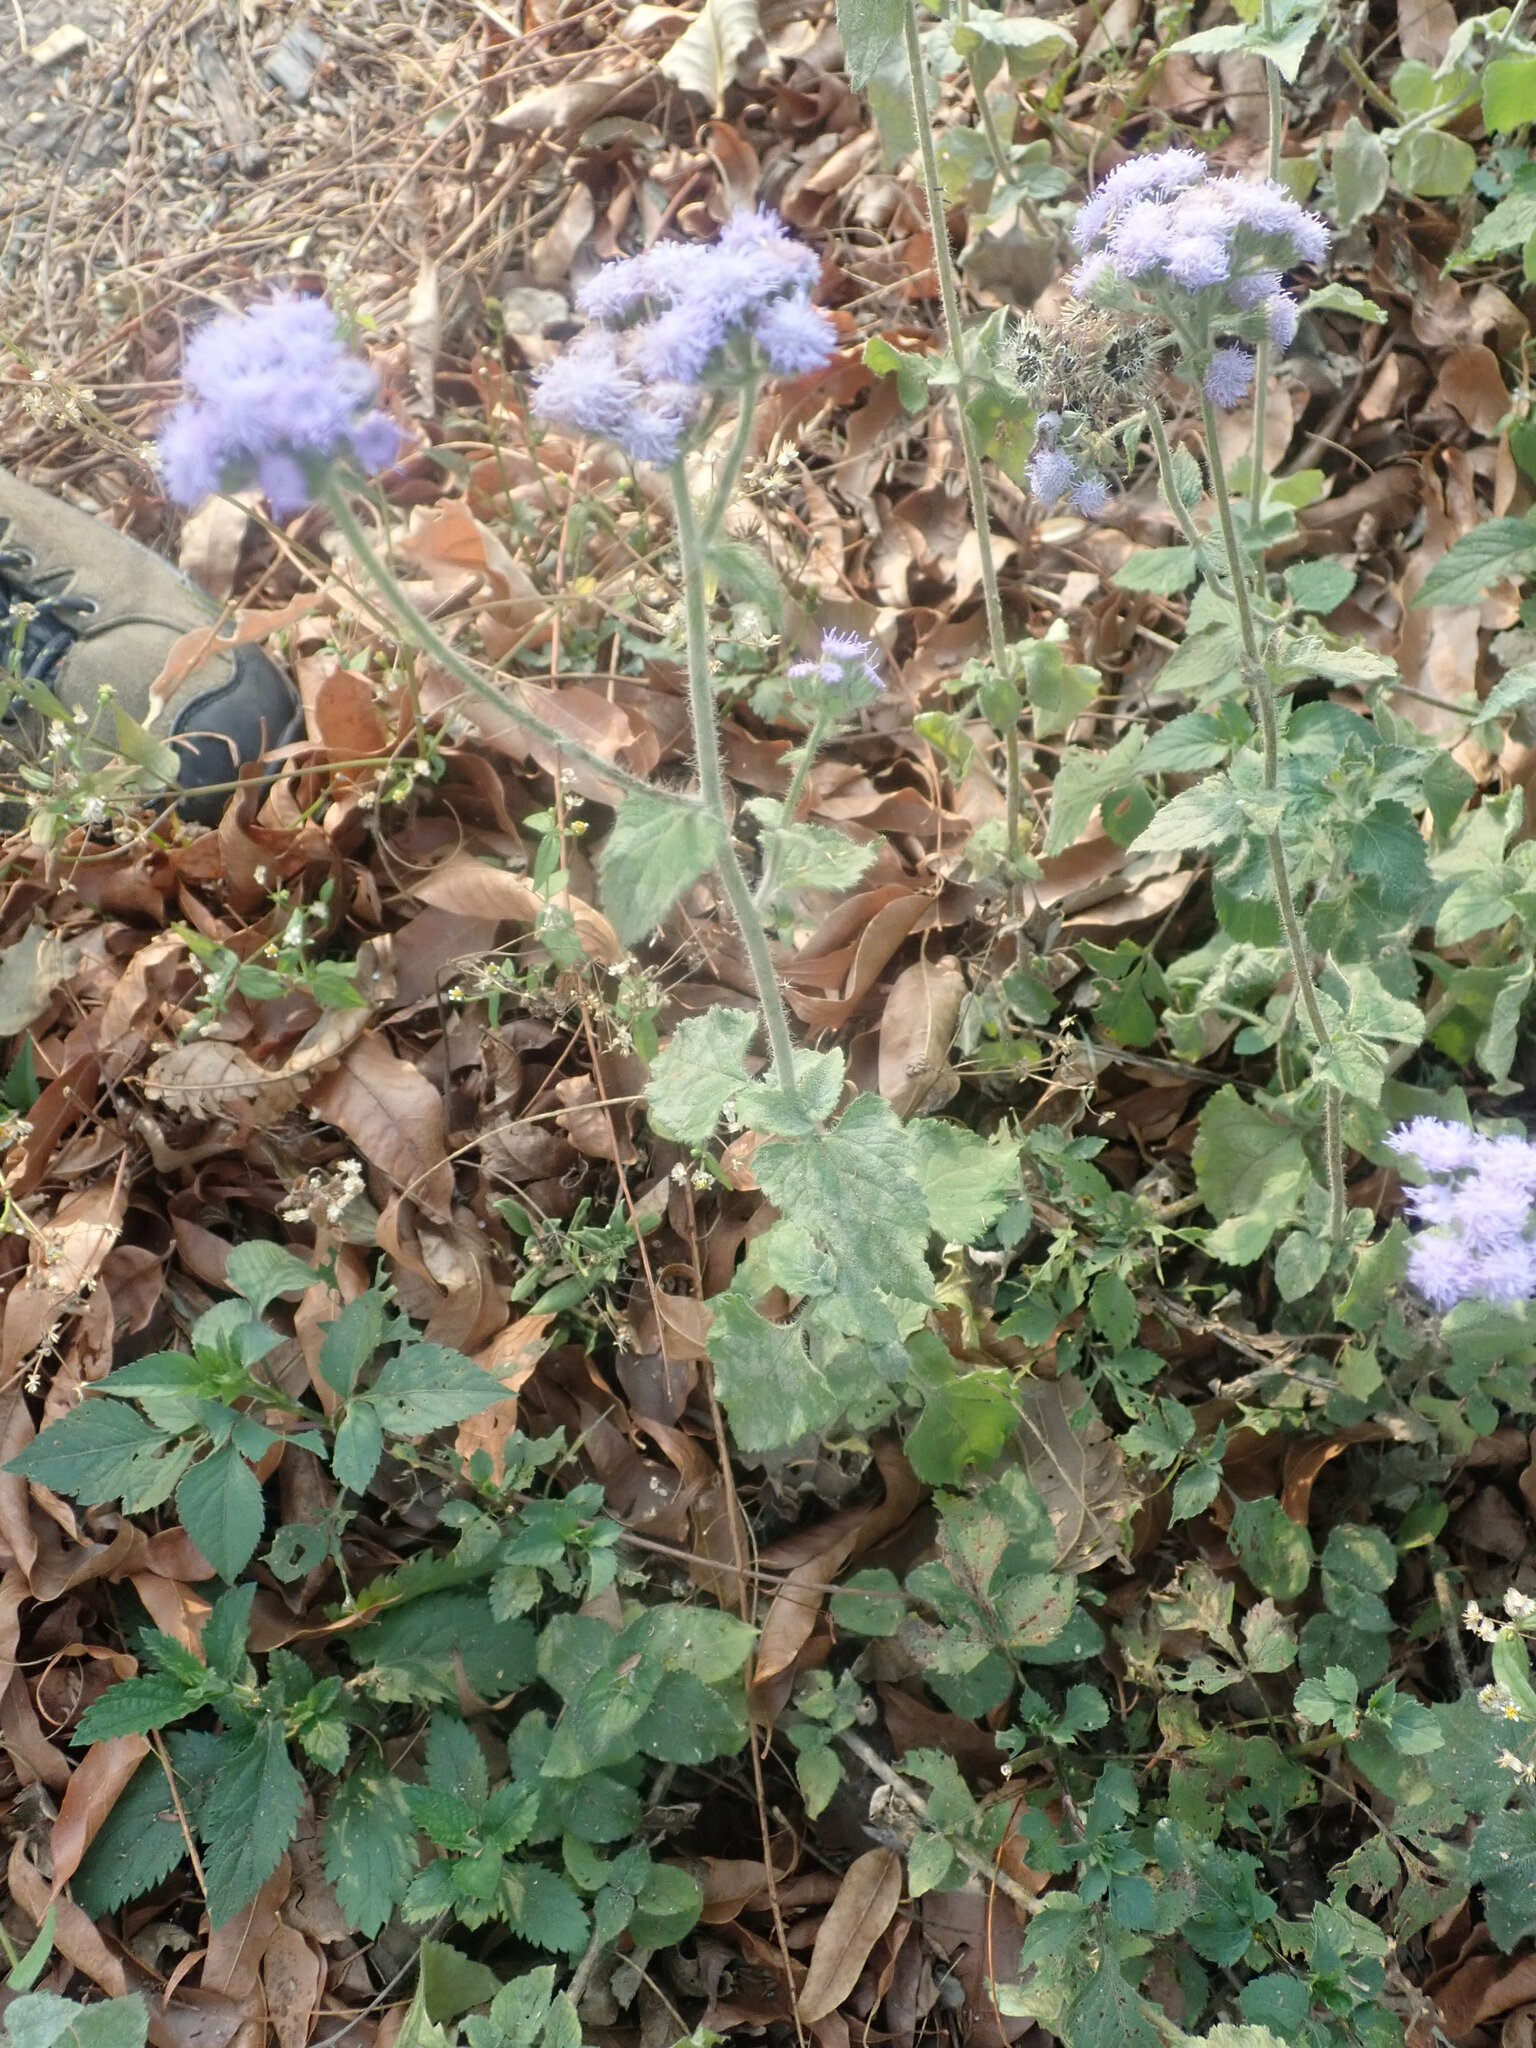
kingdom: Plantae
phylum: Tracheophyta
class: Magnoliopsida
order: Asterales
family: Asteraceae
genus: Ageratum
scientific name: Ageratum houstonianum
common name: Bluemink
